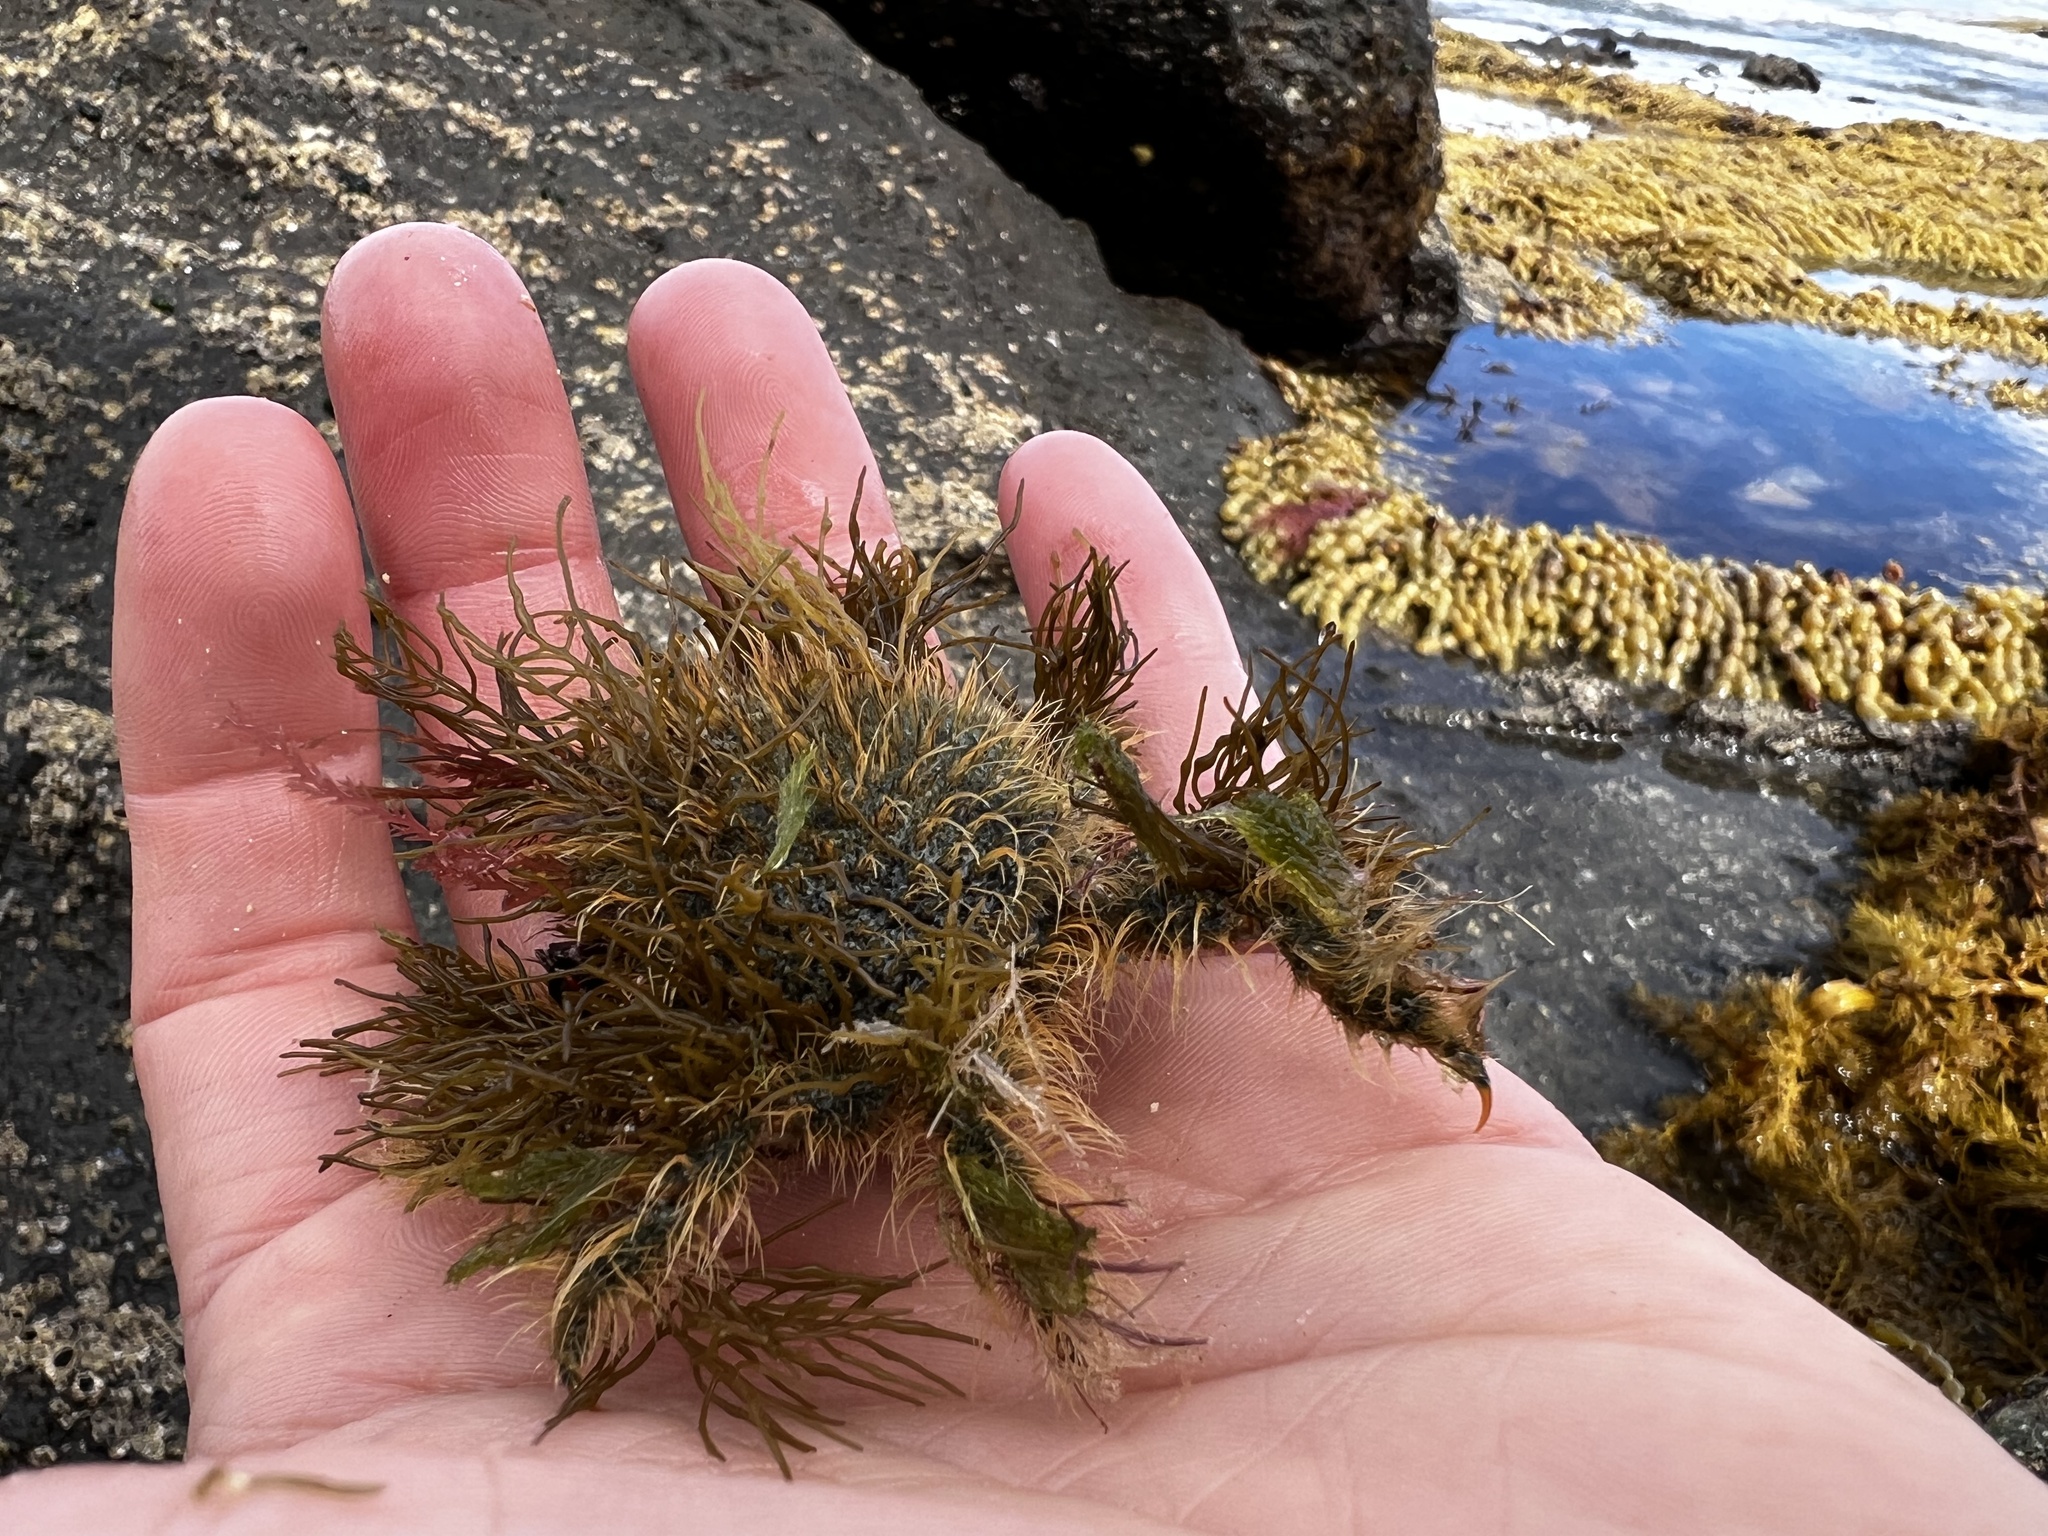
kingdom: Animalia
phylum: Arthropoda
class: Malacostraca
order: Decapoda
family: Majidae
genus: Notomithrax
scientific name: Notomithrax ursus
